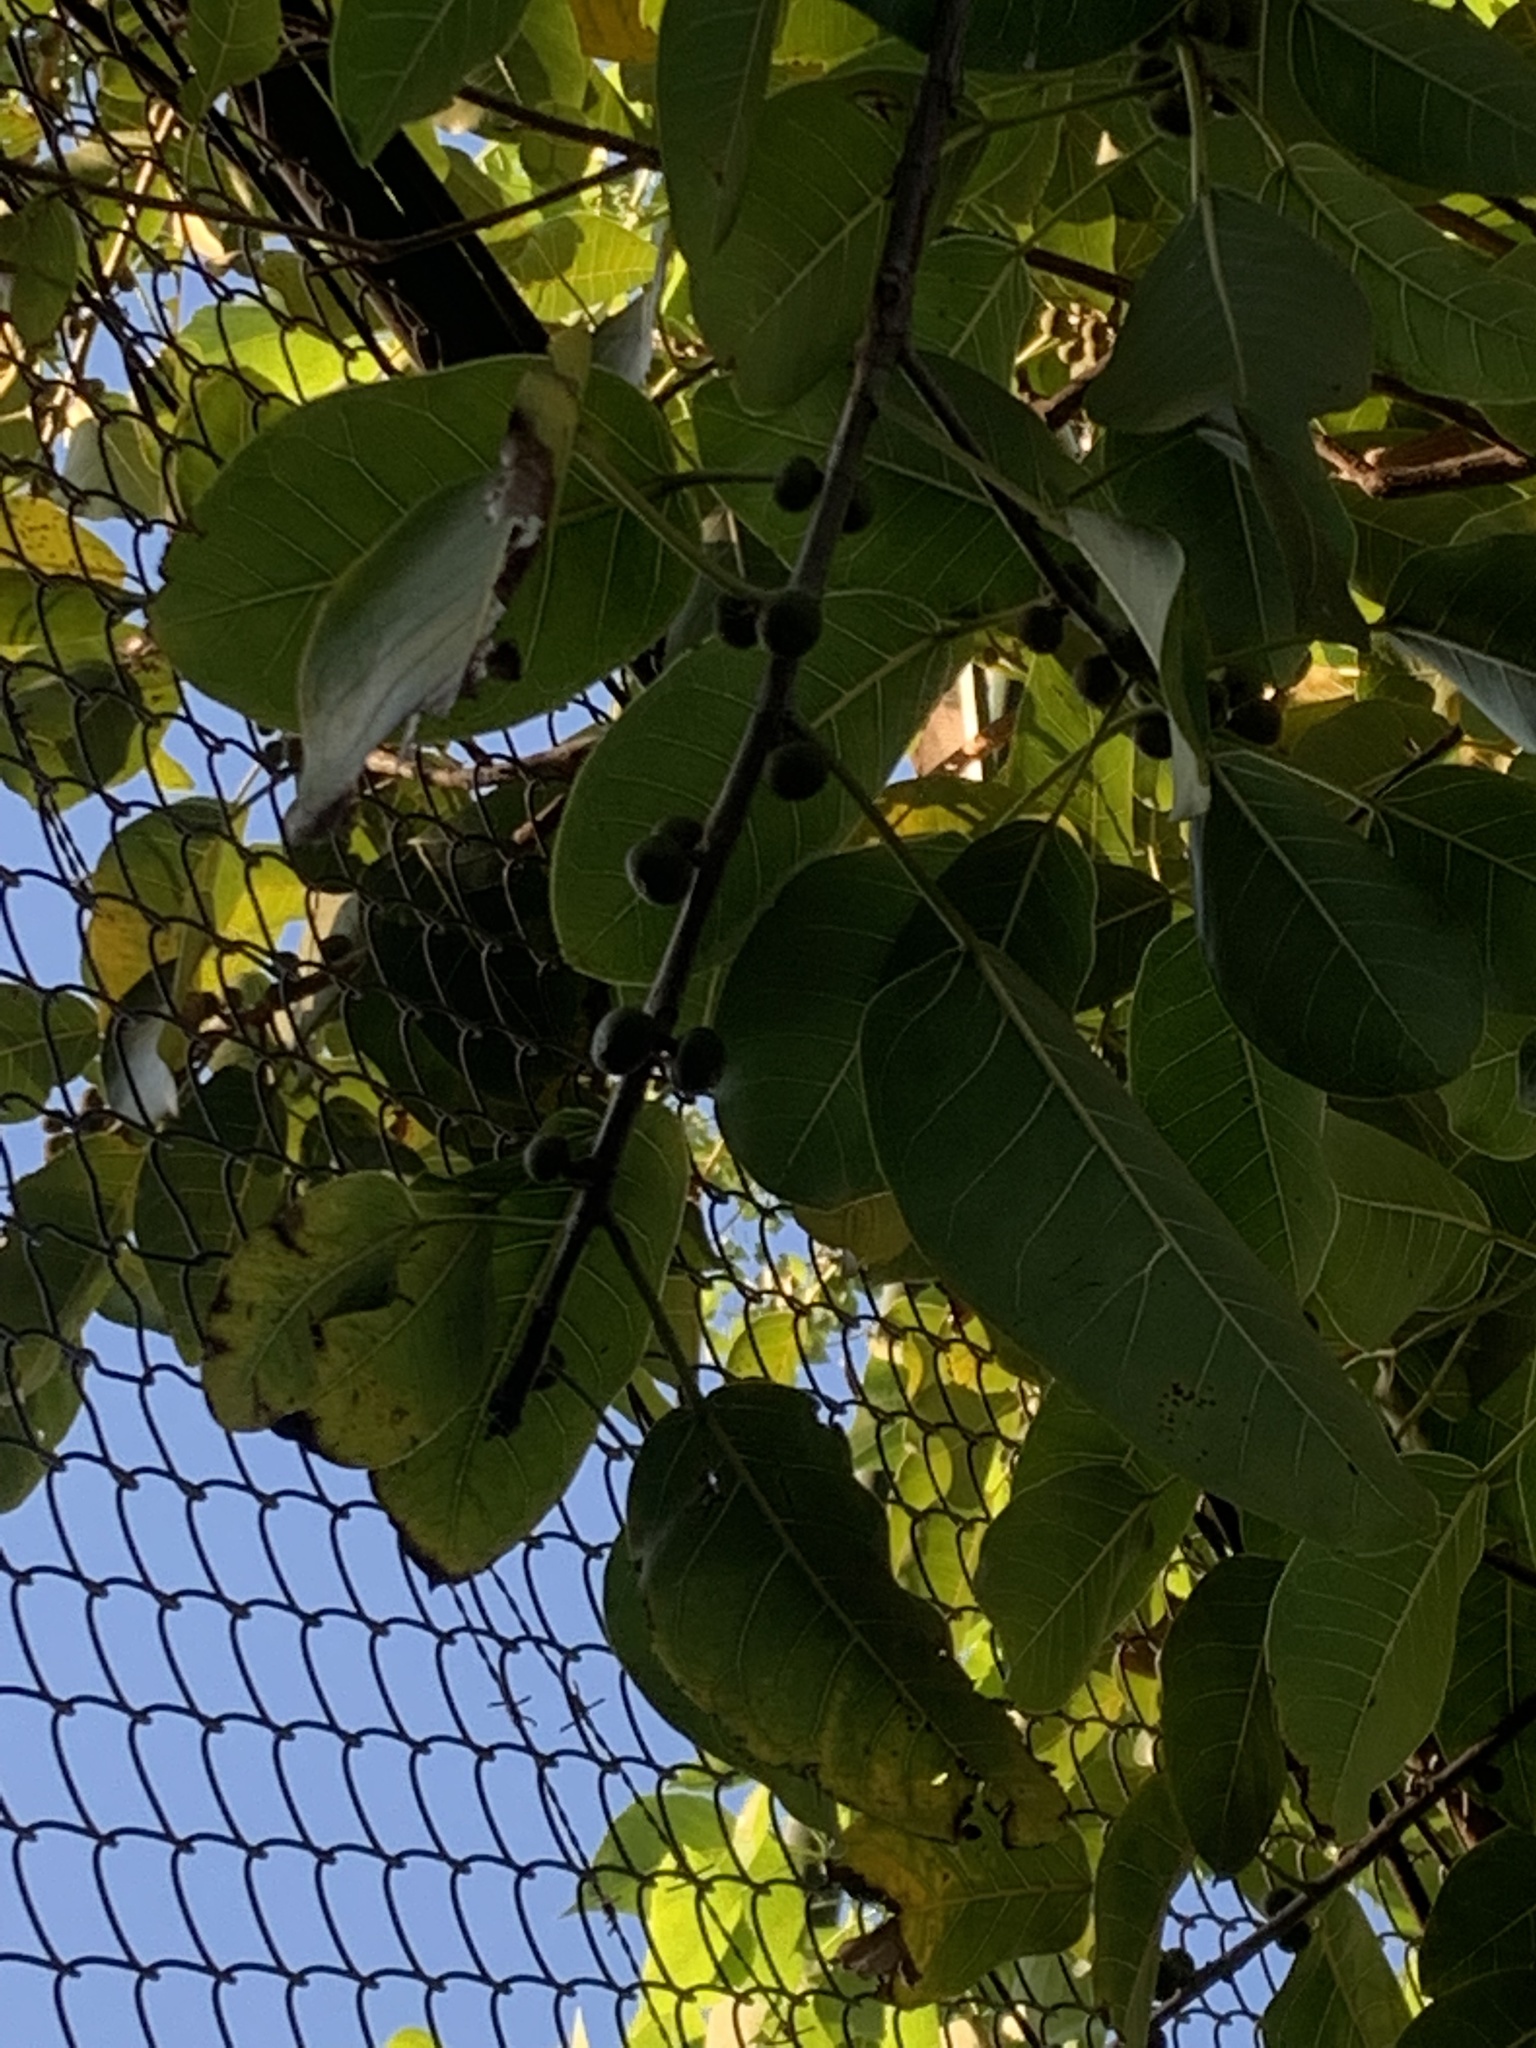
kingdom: Plantae
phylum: Tracheophyta
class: Magnoliopsida
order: Rosales
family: Moraceae
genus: Ficus
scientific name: Ficus luschnathiana
